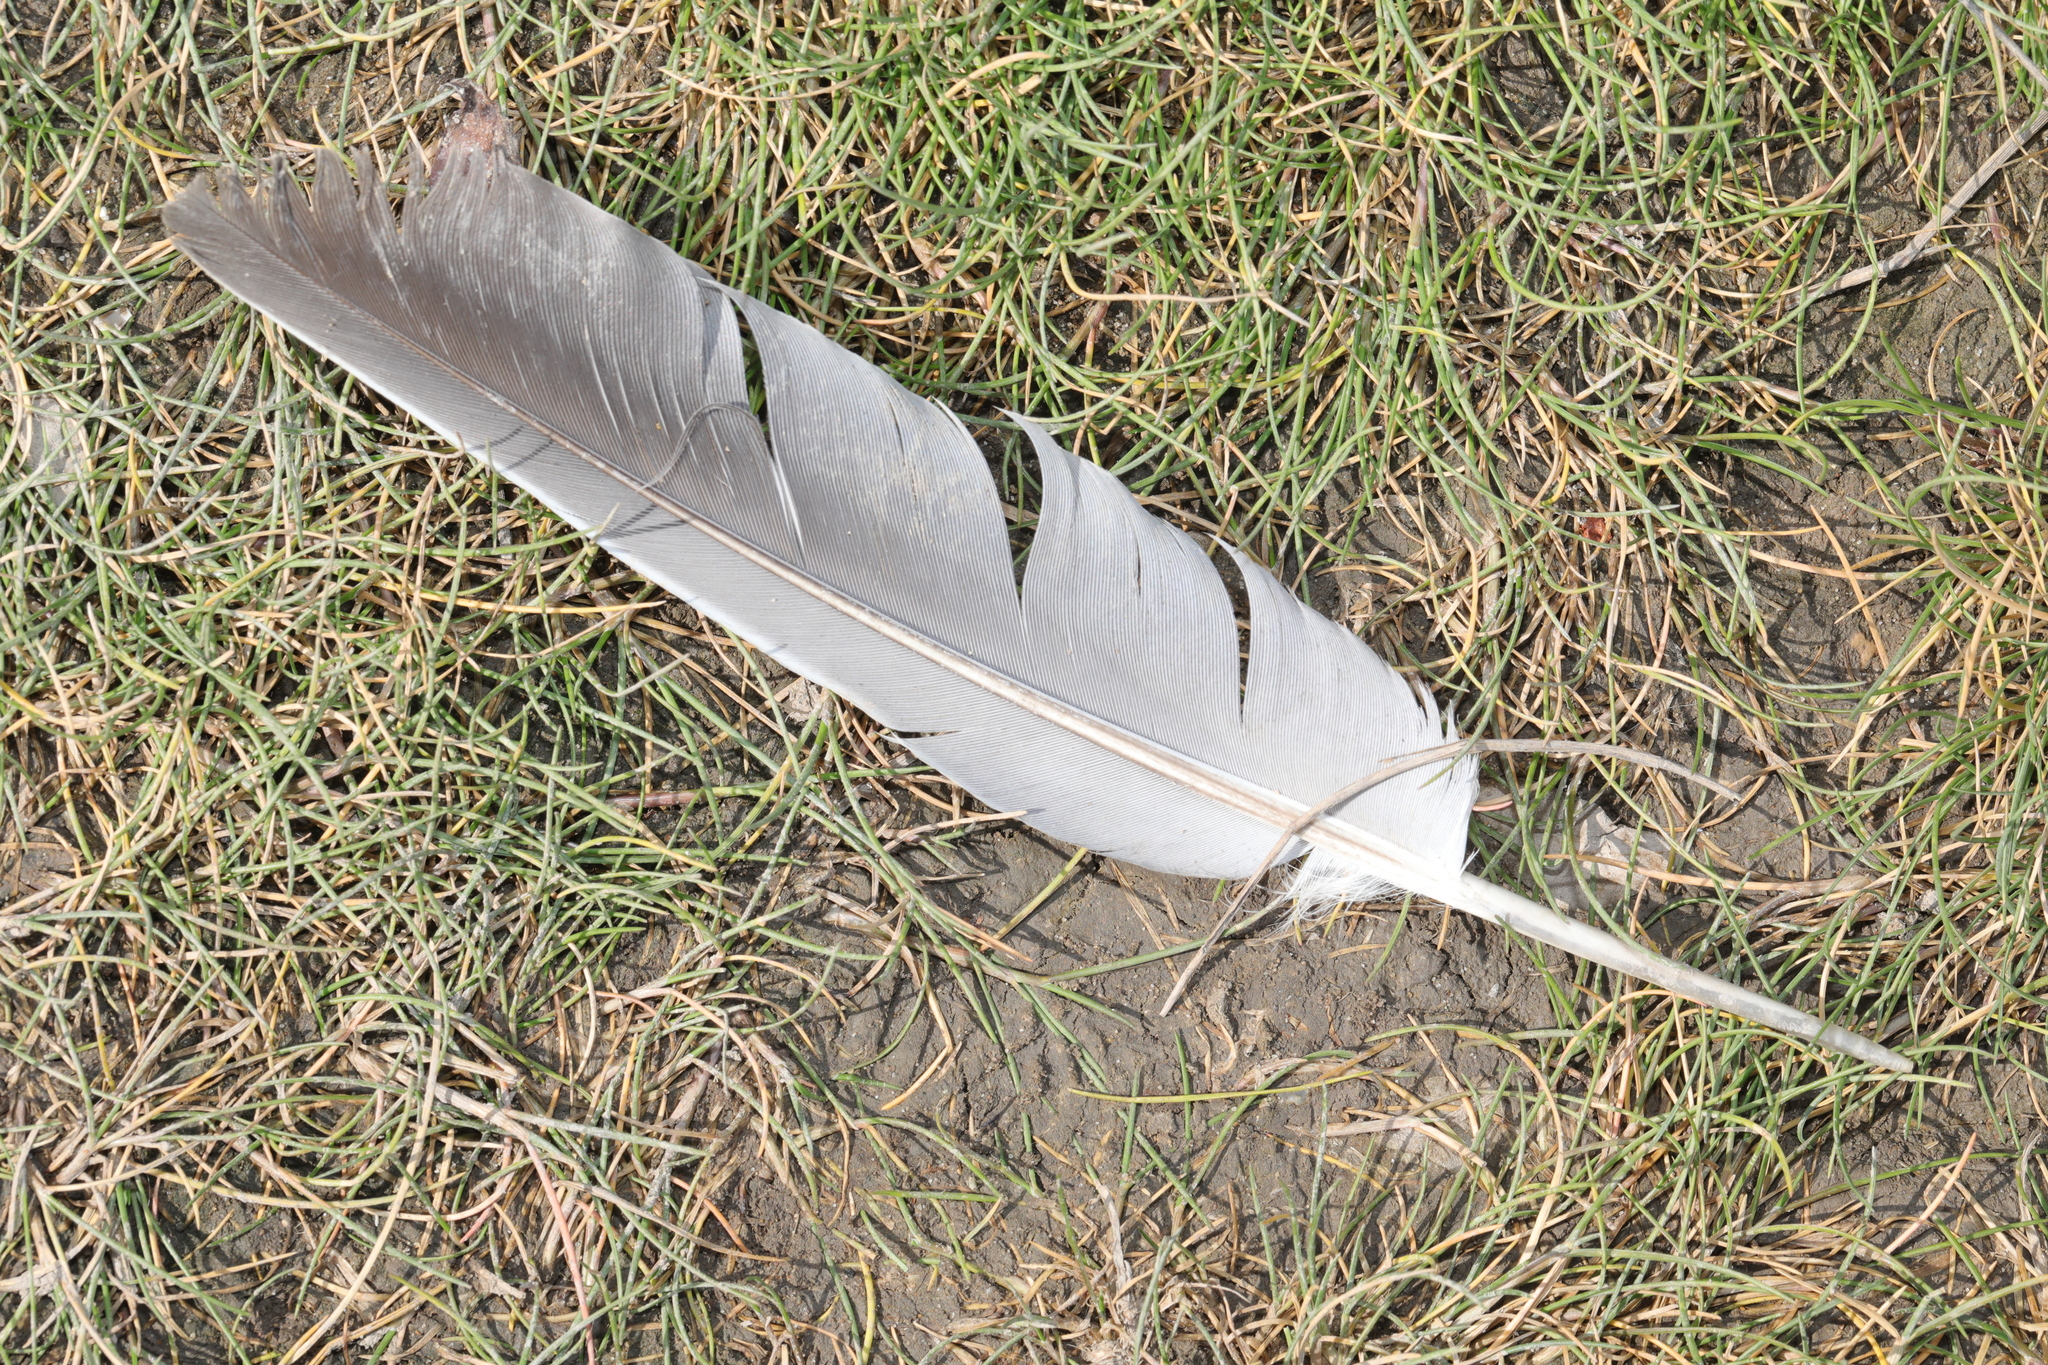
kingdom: Animalia
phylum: Chordata
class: Aves
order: Columbiformes
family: Columbidae
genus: Columba
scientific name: Columba palumbus
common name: Common wood pigeon
